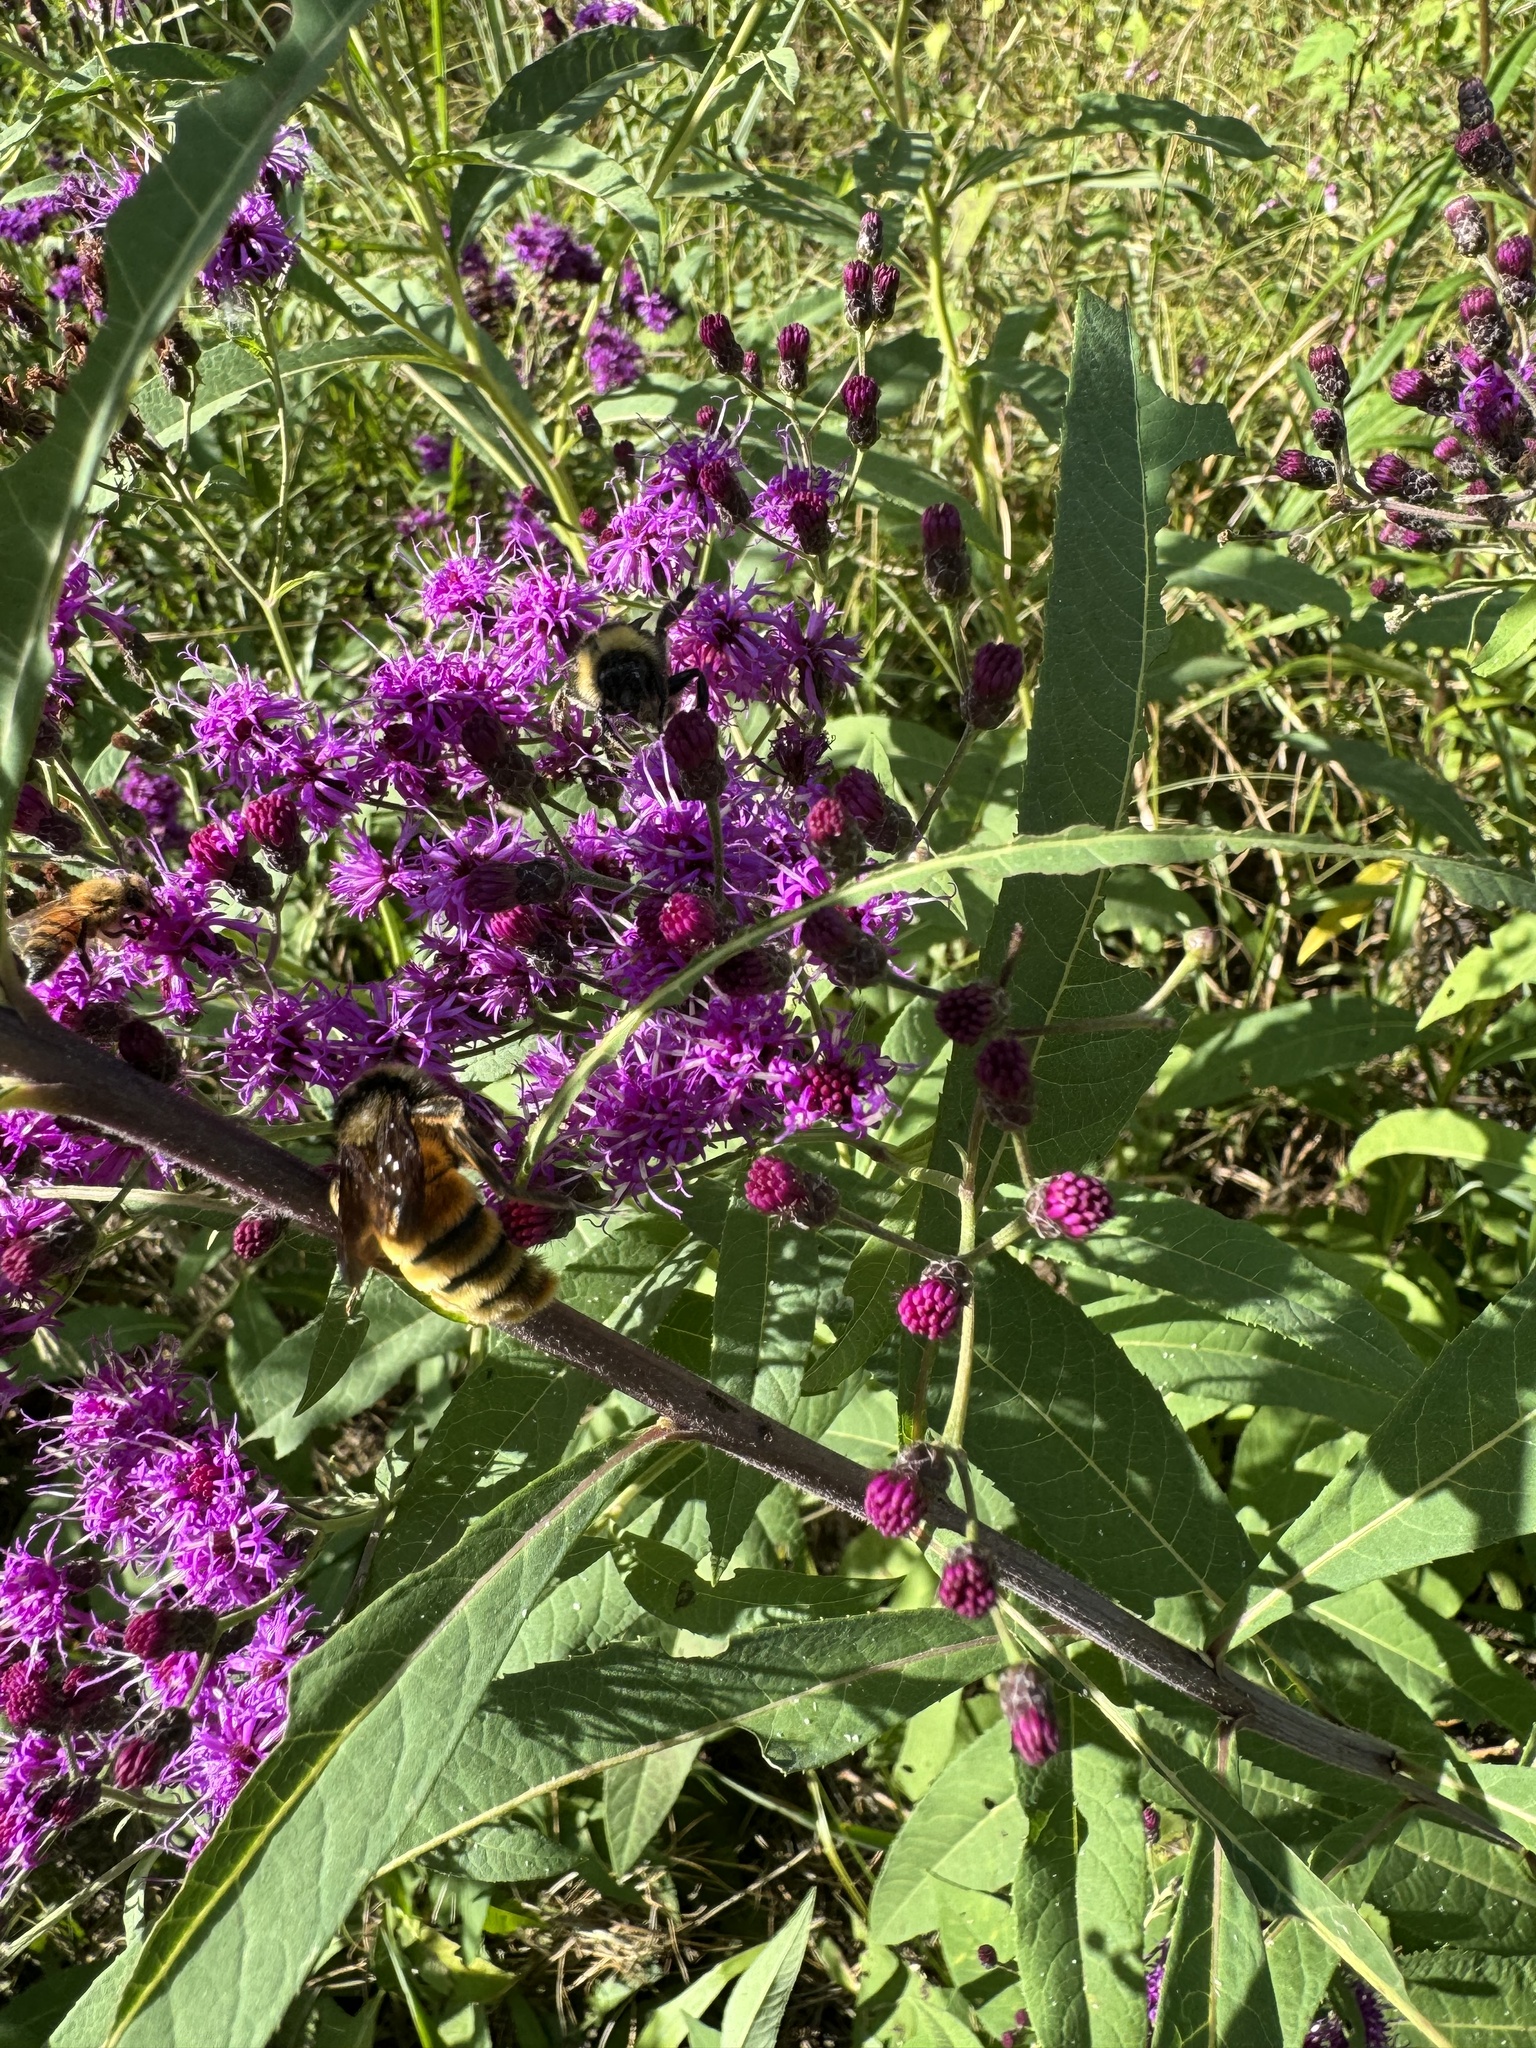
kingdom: Animalia
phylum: Arthropoda
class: Insecta
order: Hymenoptera
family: Apidae
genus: Bombus
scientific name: Bombus pensylvanicus
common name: Bumble bee
